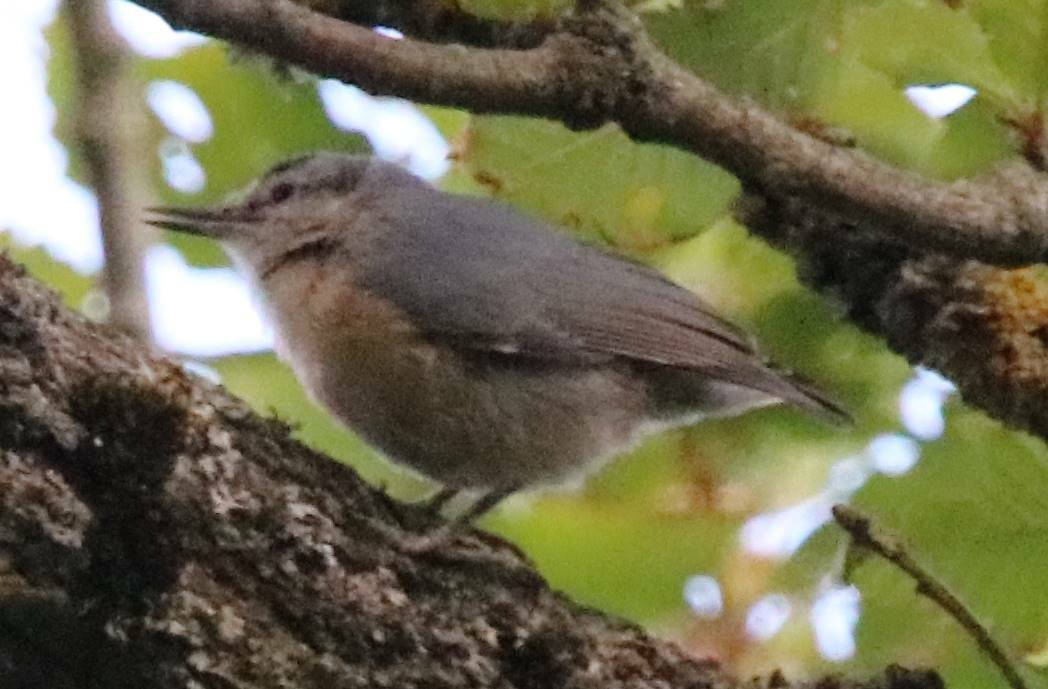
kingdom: Animalia
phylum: Chordata
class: Aves
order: Passeriformes
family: Sittidae
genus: Sitta
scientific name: Sitta ledanti
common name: Algerian nuthatch
